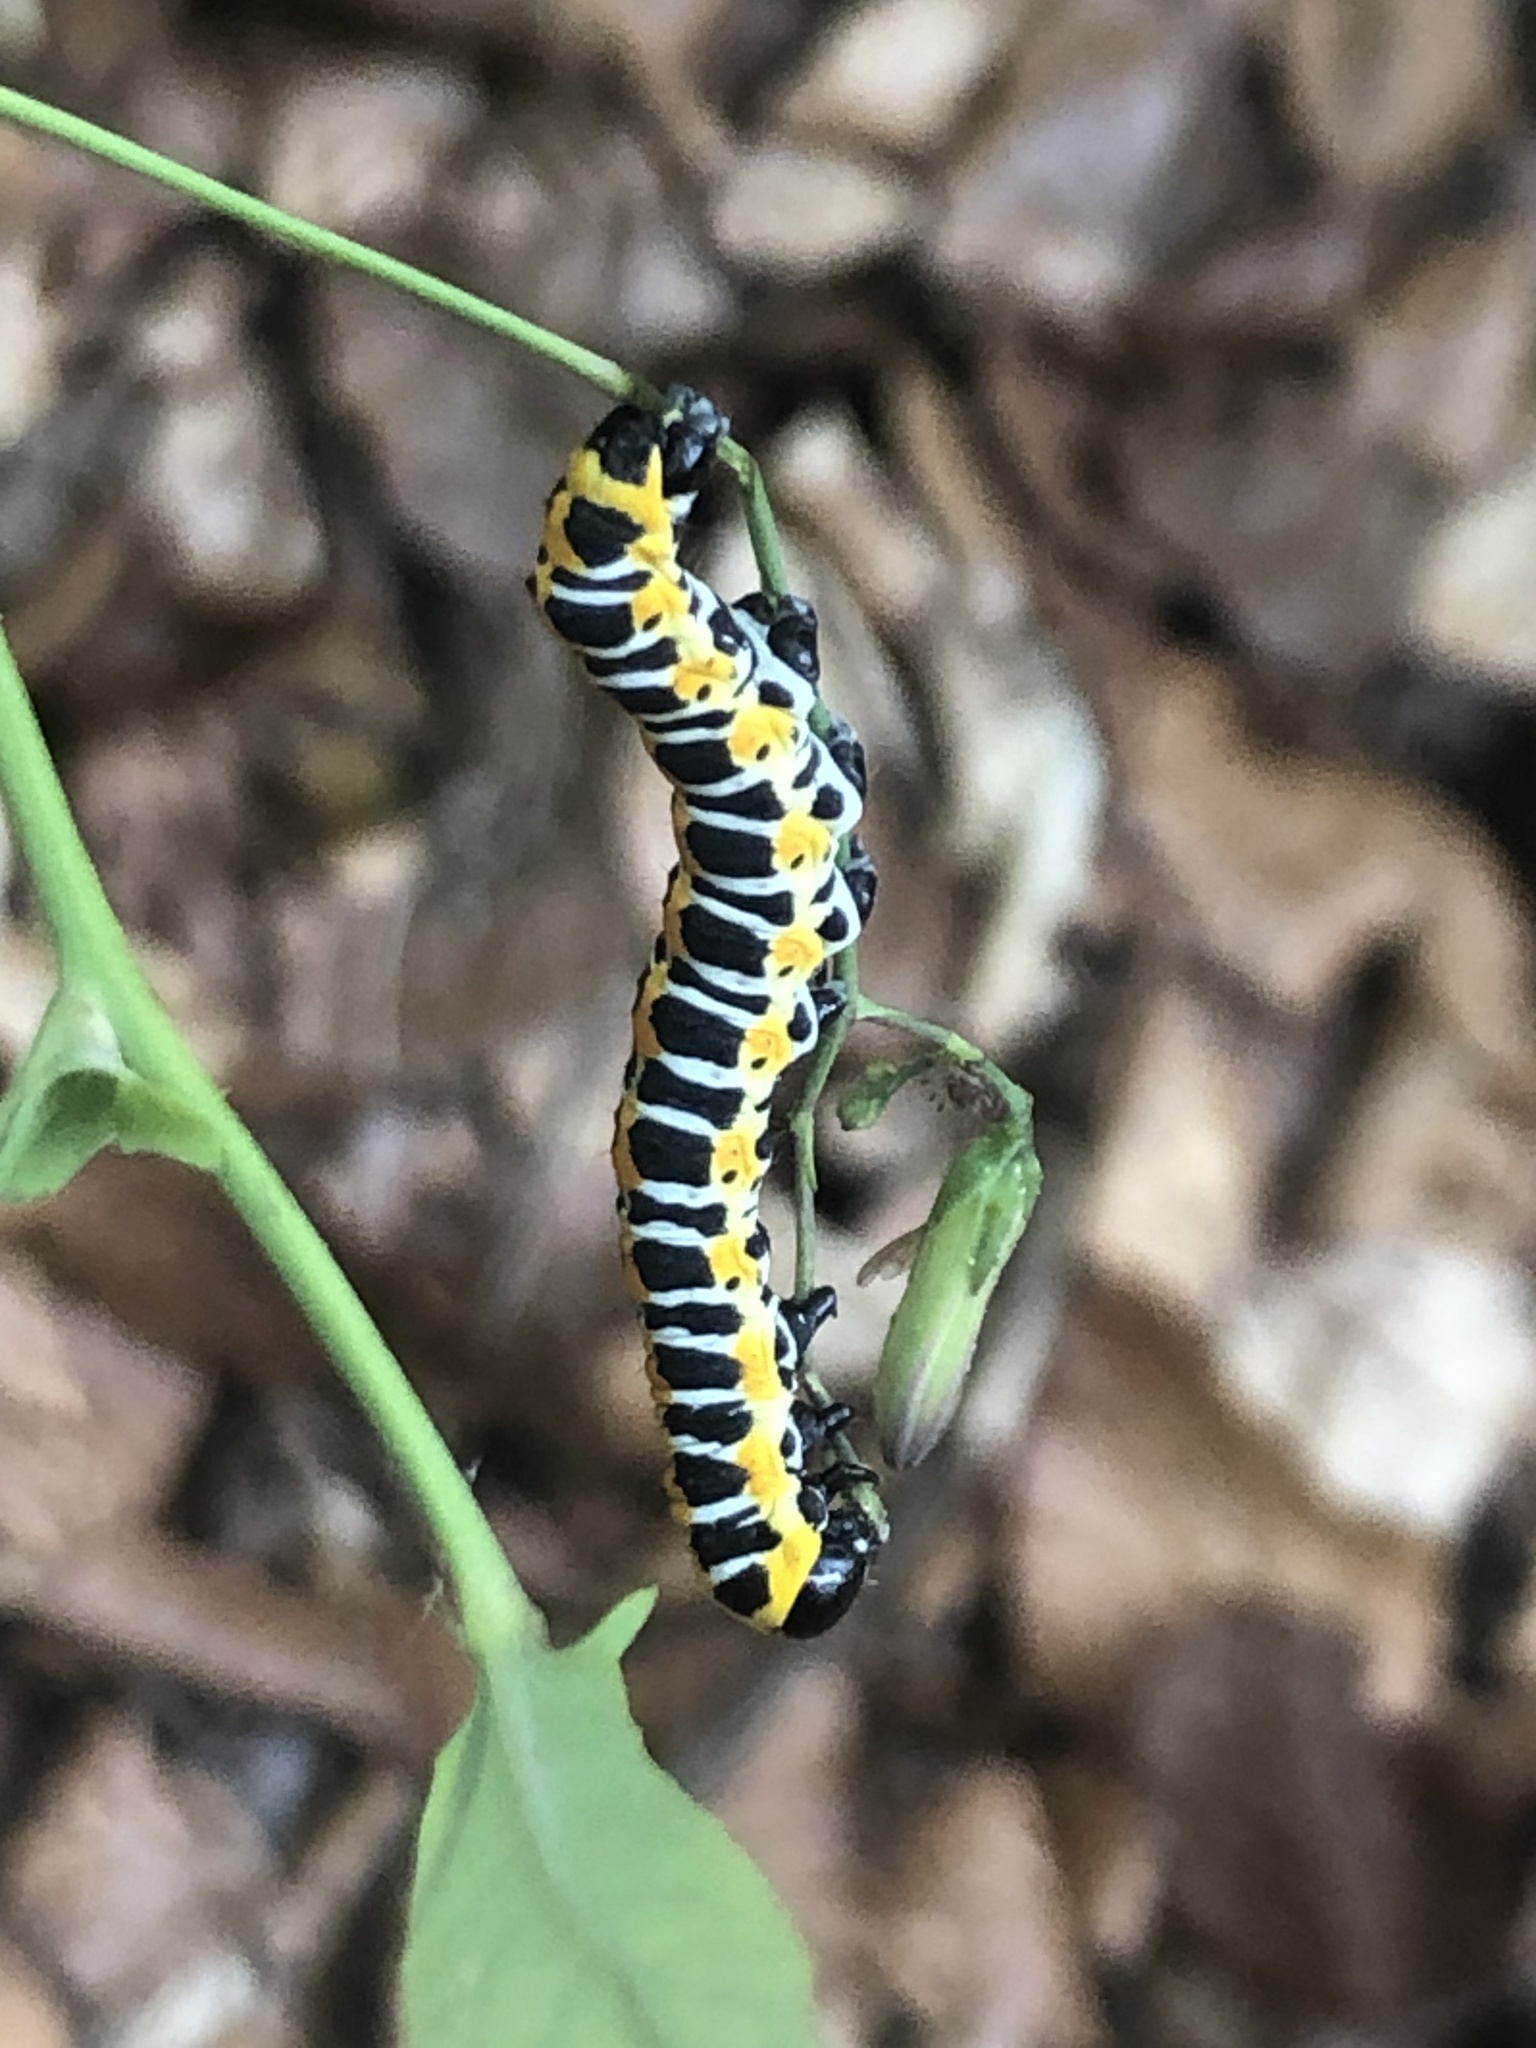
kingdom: Animalia
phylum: Arthropoda
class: Insecta
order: Lepidoptera
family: Noctuidae
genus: Cucullia
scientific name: Cucullia lactucae
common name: Lettuce shark
